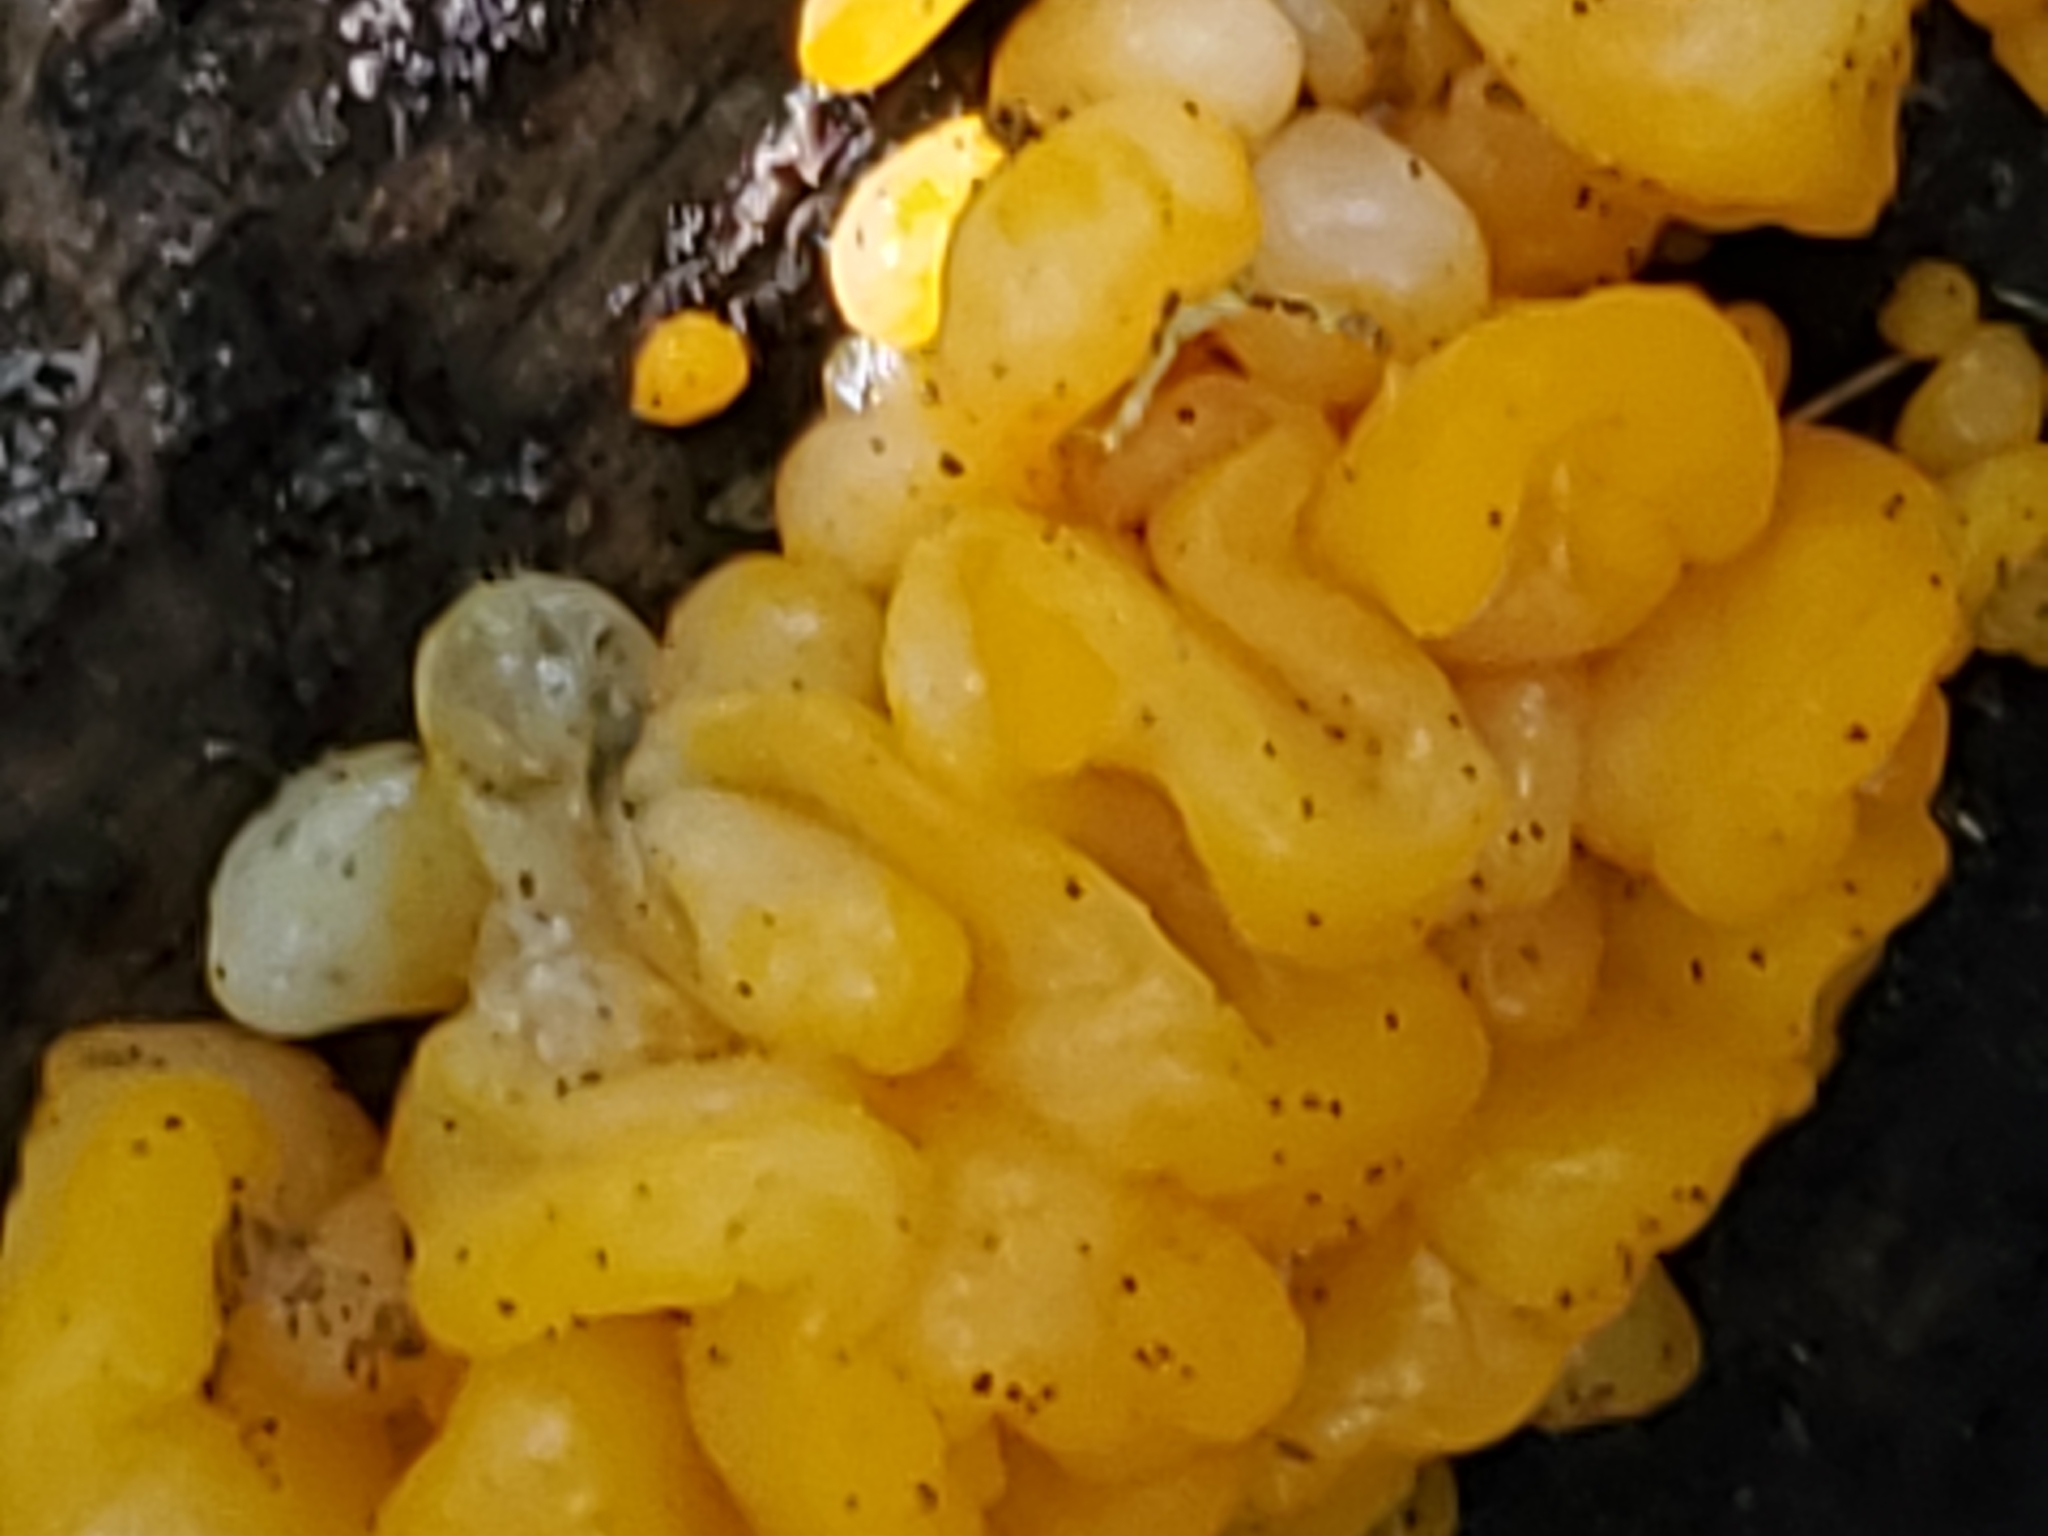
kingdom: Fungi
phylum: Basidiomycota
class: Tremellomycetes
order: Tremellales
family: Tremellaceae
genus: Tremella
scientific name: Tremella mesenterica
